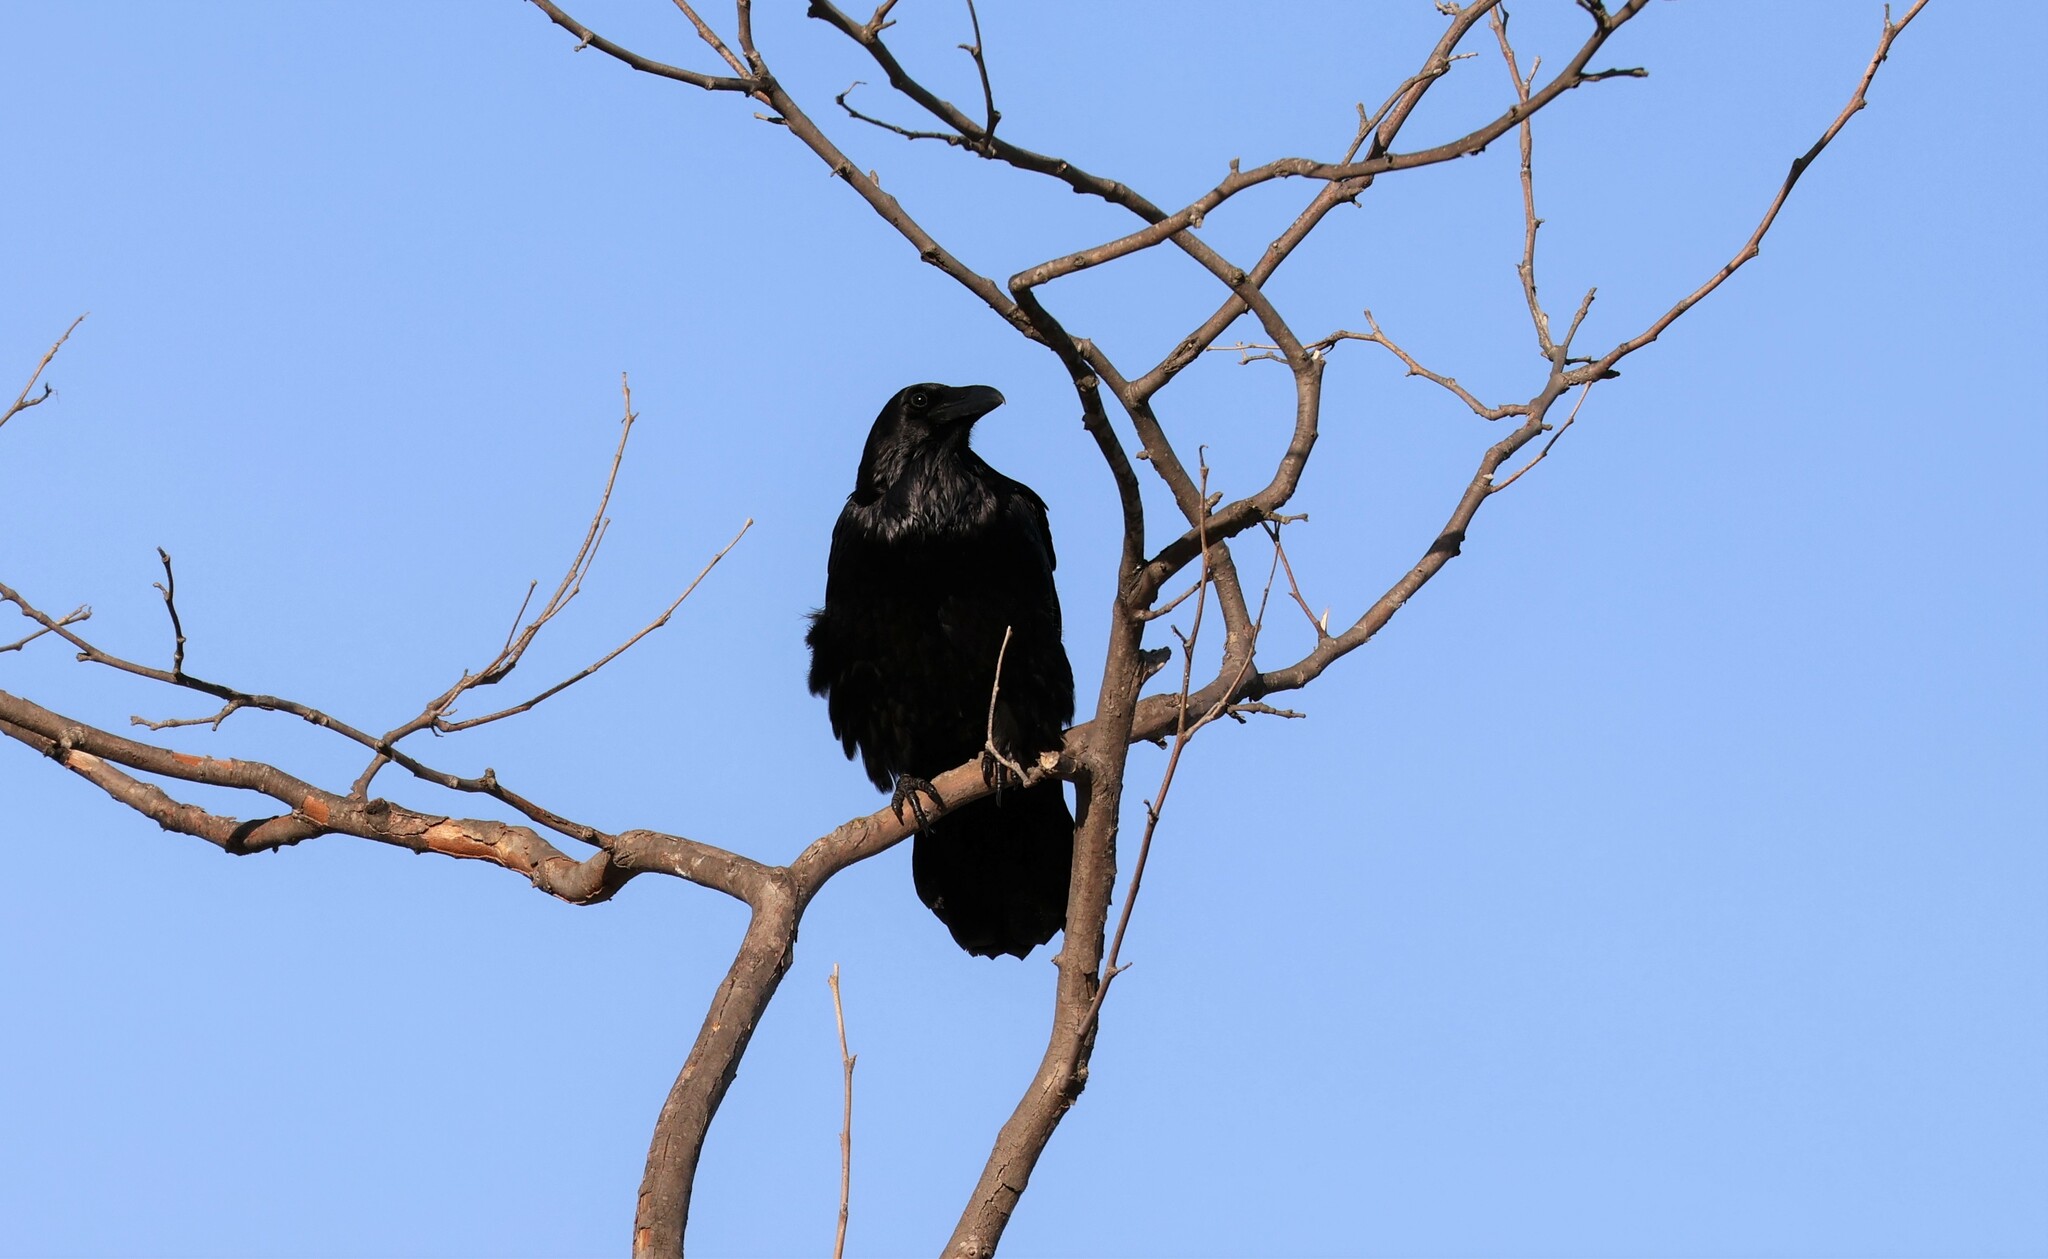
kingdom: Animalia
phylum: Chordata
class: Aves
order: Passeriformes
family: Corvidae
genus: Corvus
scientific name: Corvus corax
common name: Common raven
